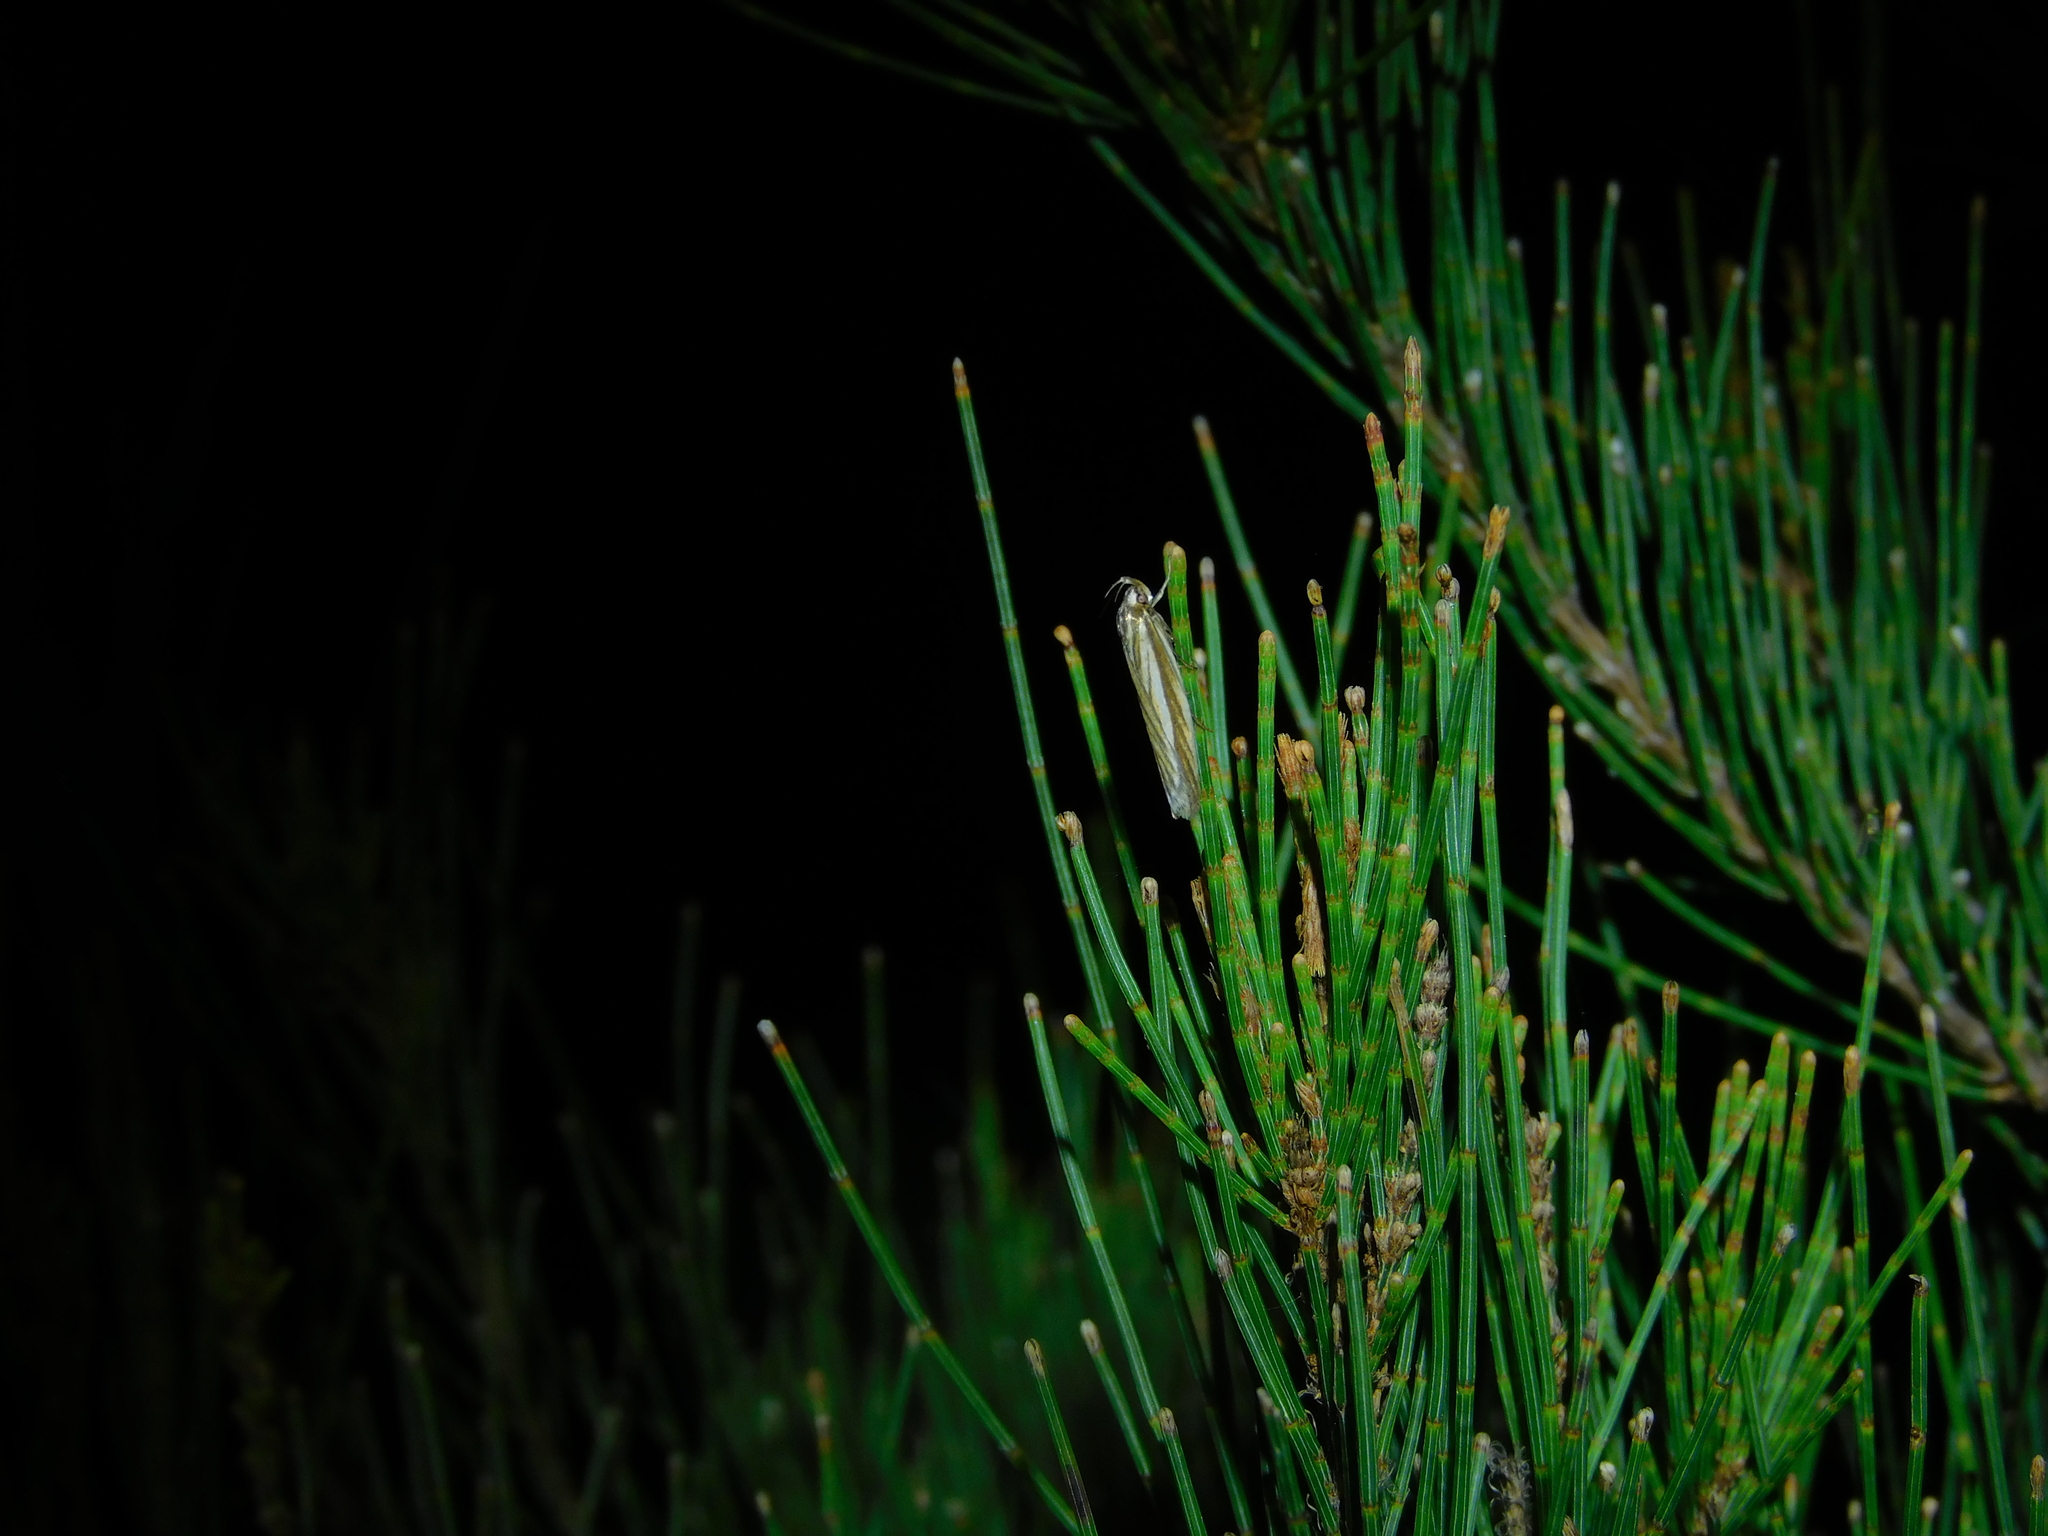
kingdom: Animalia
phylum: Arthropoda
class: Insecta
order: Lepidoptera
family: Xyloryctidae
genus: Xylorycta
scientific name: Xylorycta calligramma
